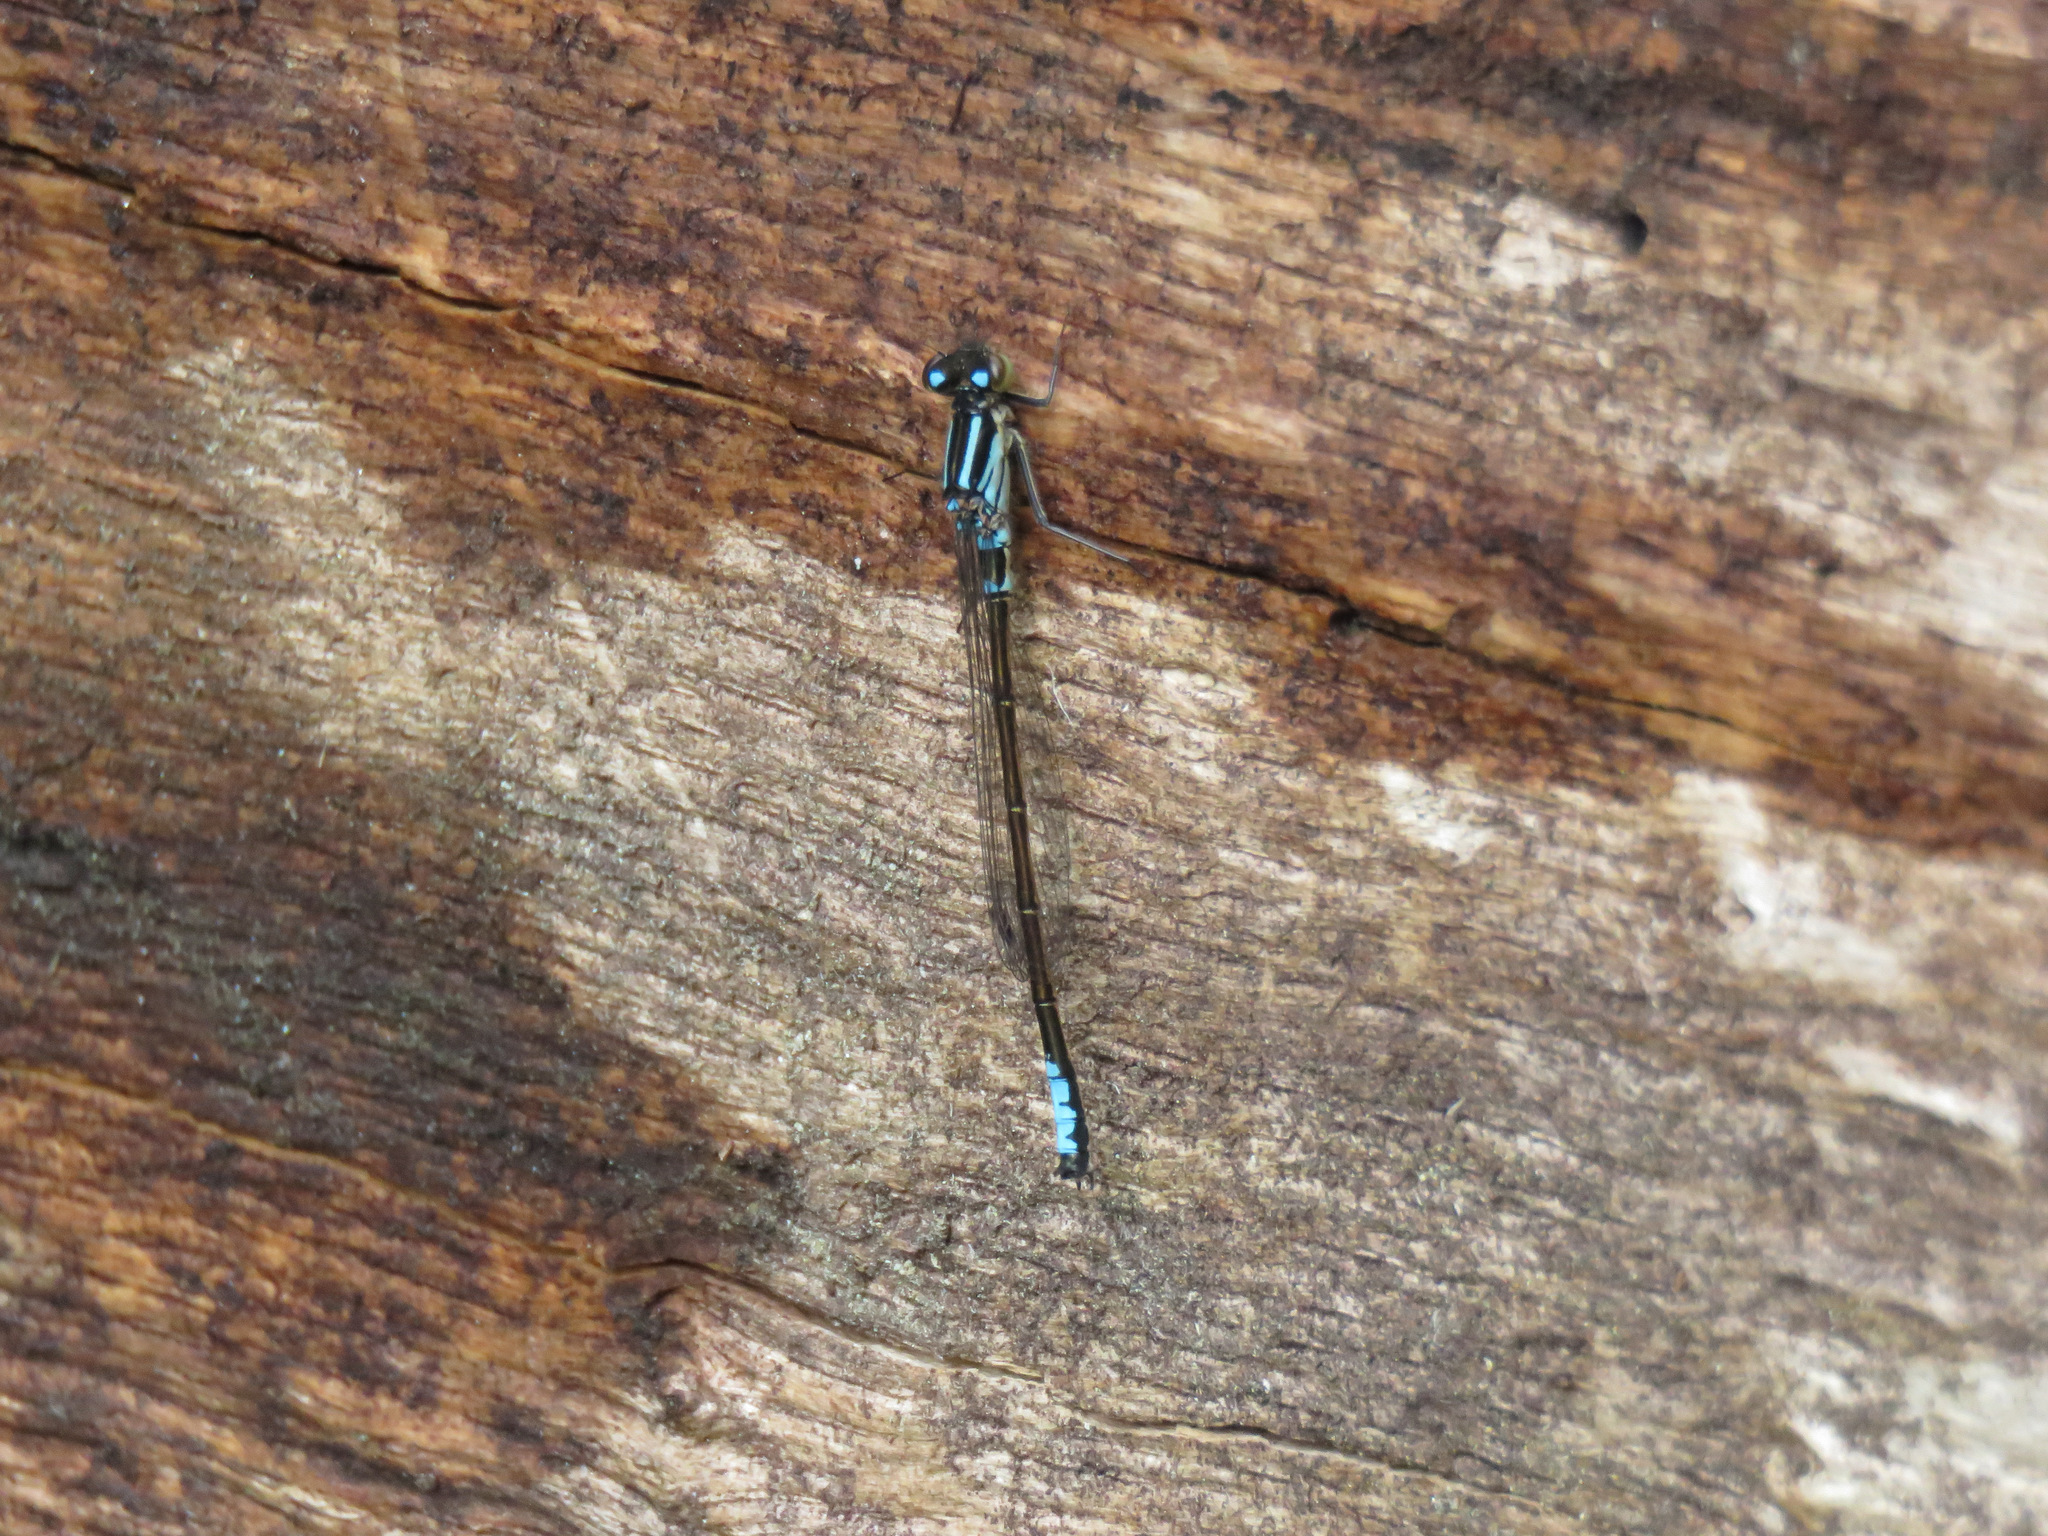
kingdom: Animalia
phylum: Arthropoda
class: Insecta
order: Odonata
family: Coenagrionidae
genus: Ischnura
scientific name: Ischnura erratica
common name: Swift forktail
